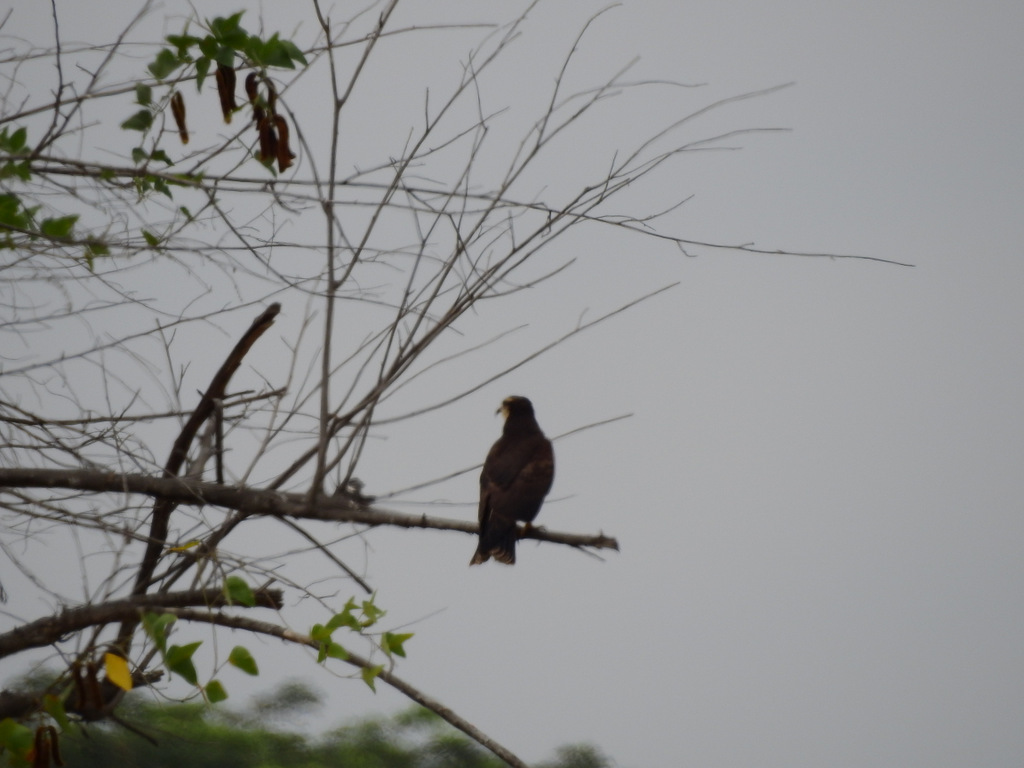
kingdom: Animalia
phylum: Chordata
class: Aves
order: Accipitriformes
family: Accipitridae
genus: Rostrhamus
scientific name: Rostrhamus sociabilis
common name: Snail kite
